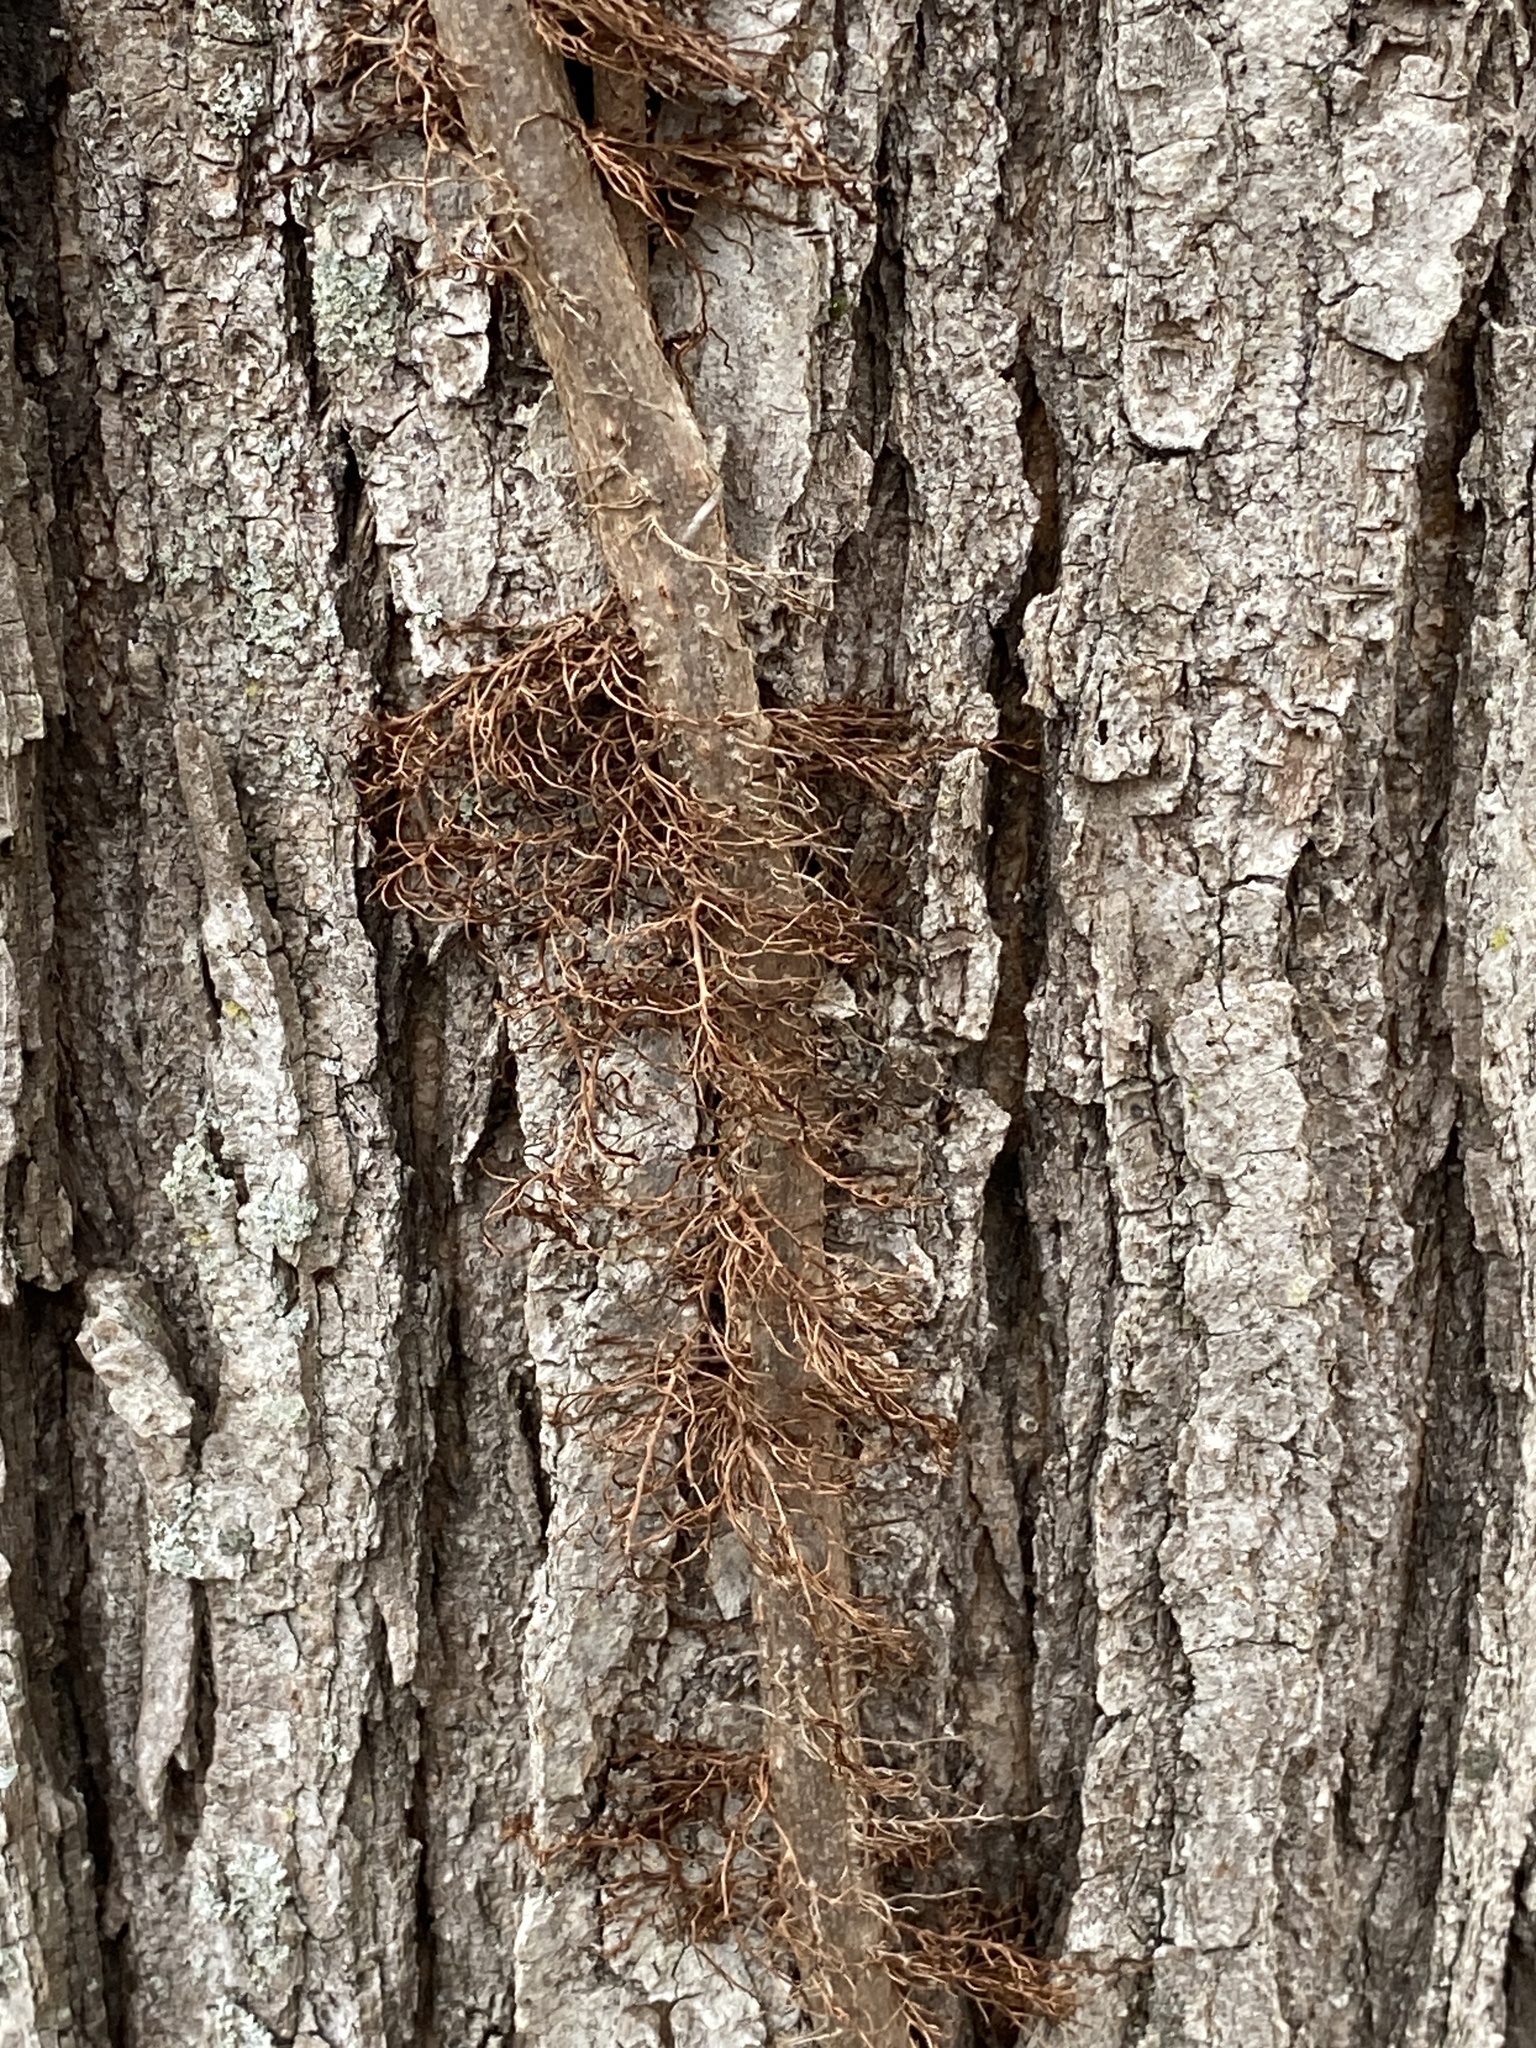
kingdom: Plantae
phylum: Tracheophyta
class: Magnoliopsida
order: Sapindales
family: Anacardiaceae
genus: Toxicodendron
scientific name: Toxicodendron radicans
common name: Poison ivy
